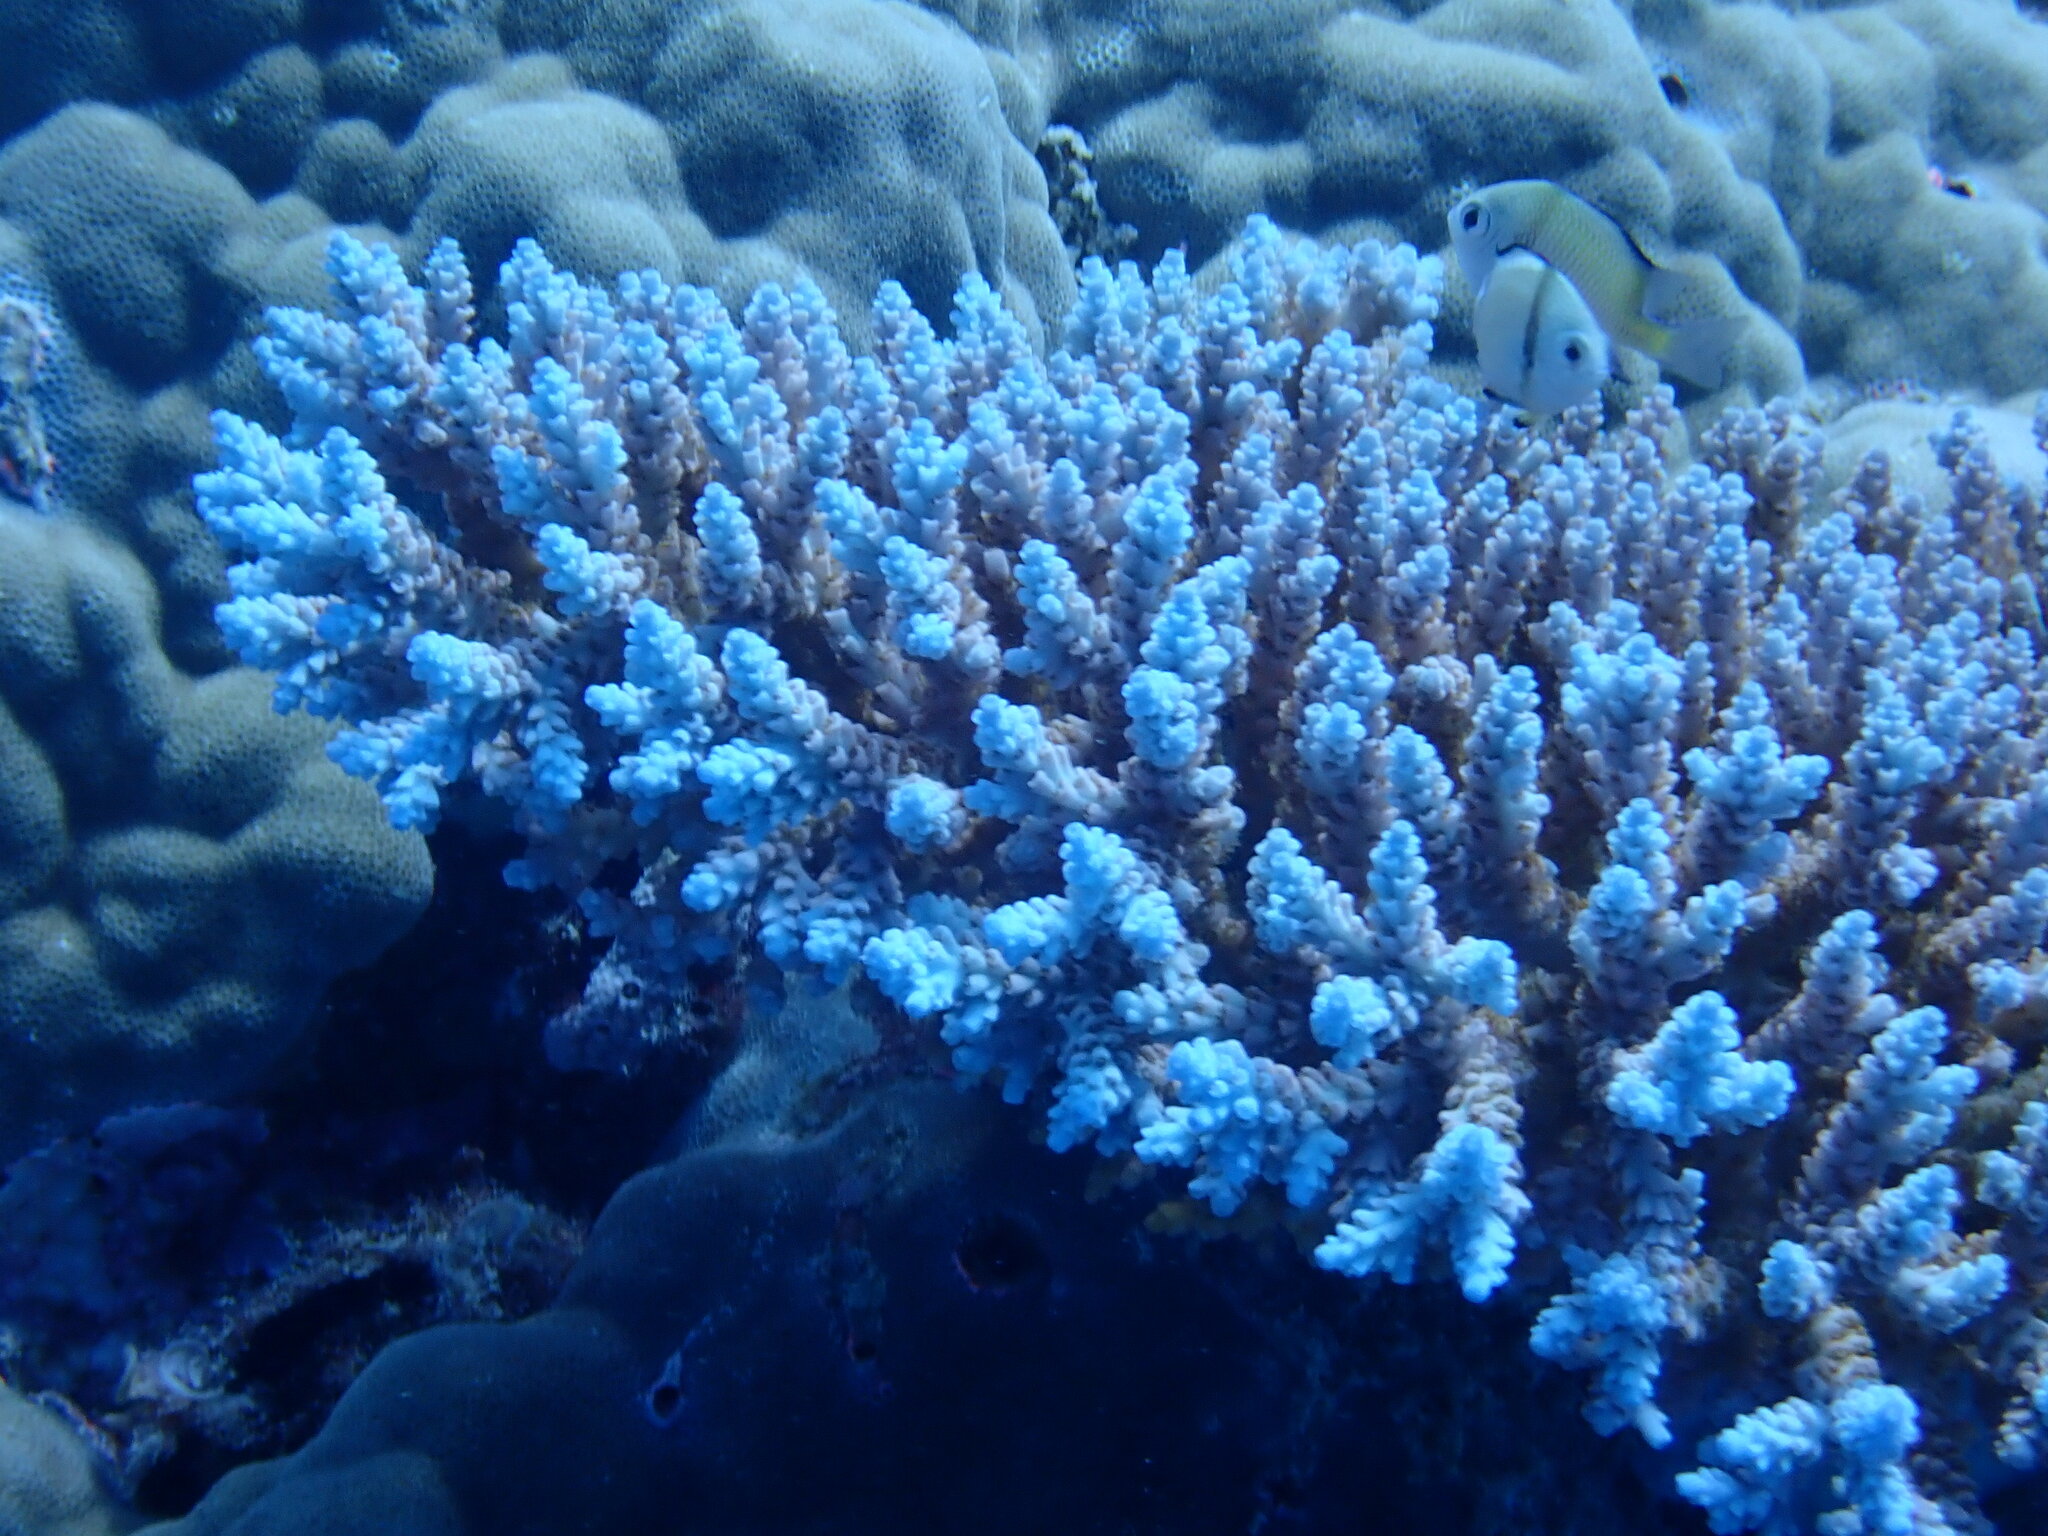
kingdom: Animalia
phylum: Chordata
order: Perciformes
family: Pomacentridae
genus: Dascyllus
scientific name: Dascyllus reticulatus
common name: Reticulated dascyllus
